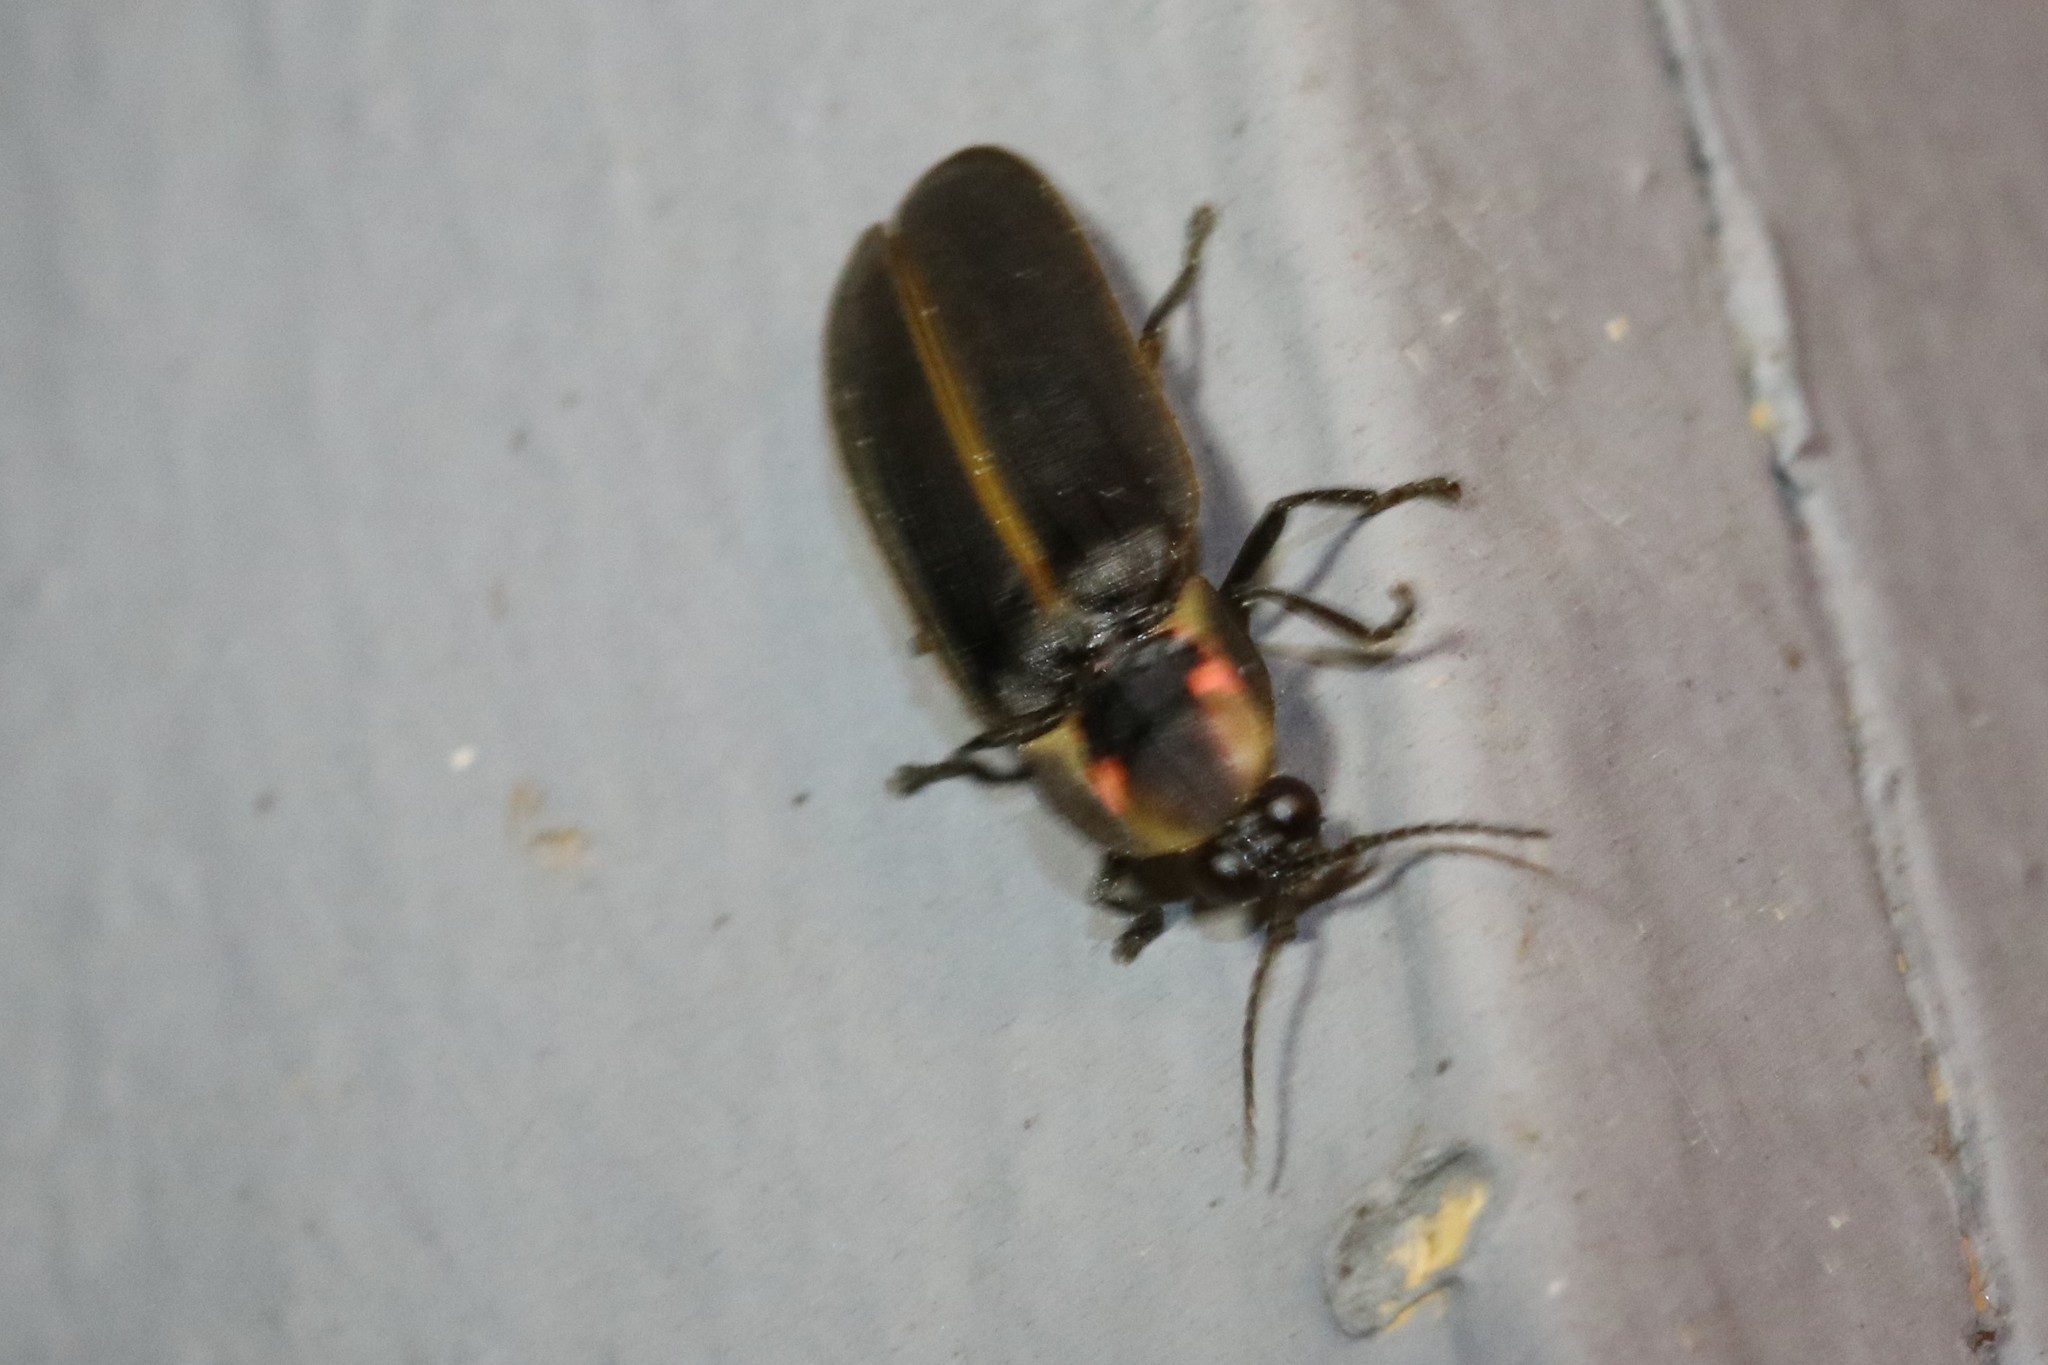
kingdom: Animalia
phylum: Arthropoda
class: Insecta
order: Coleoptera
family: Lampyridae
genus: Pyractomena
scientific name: Pyractomena borealis
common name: Northern firefly
